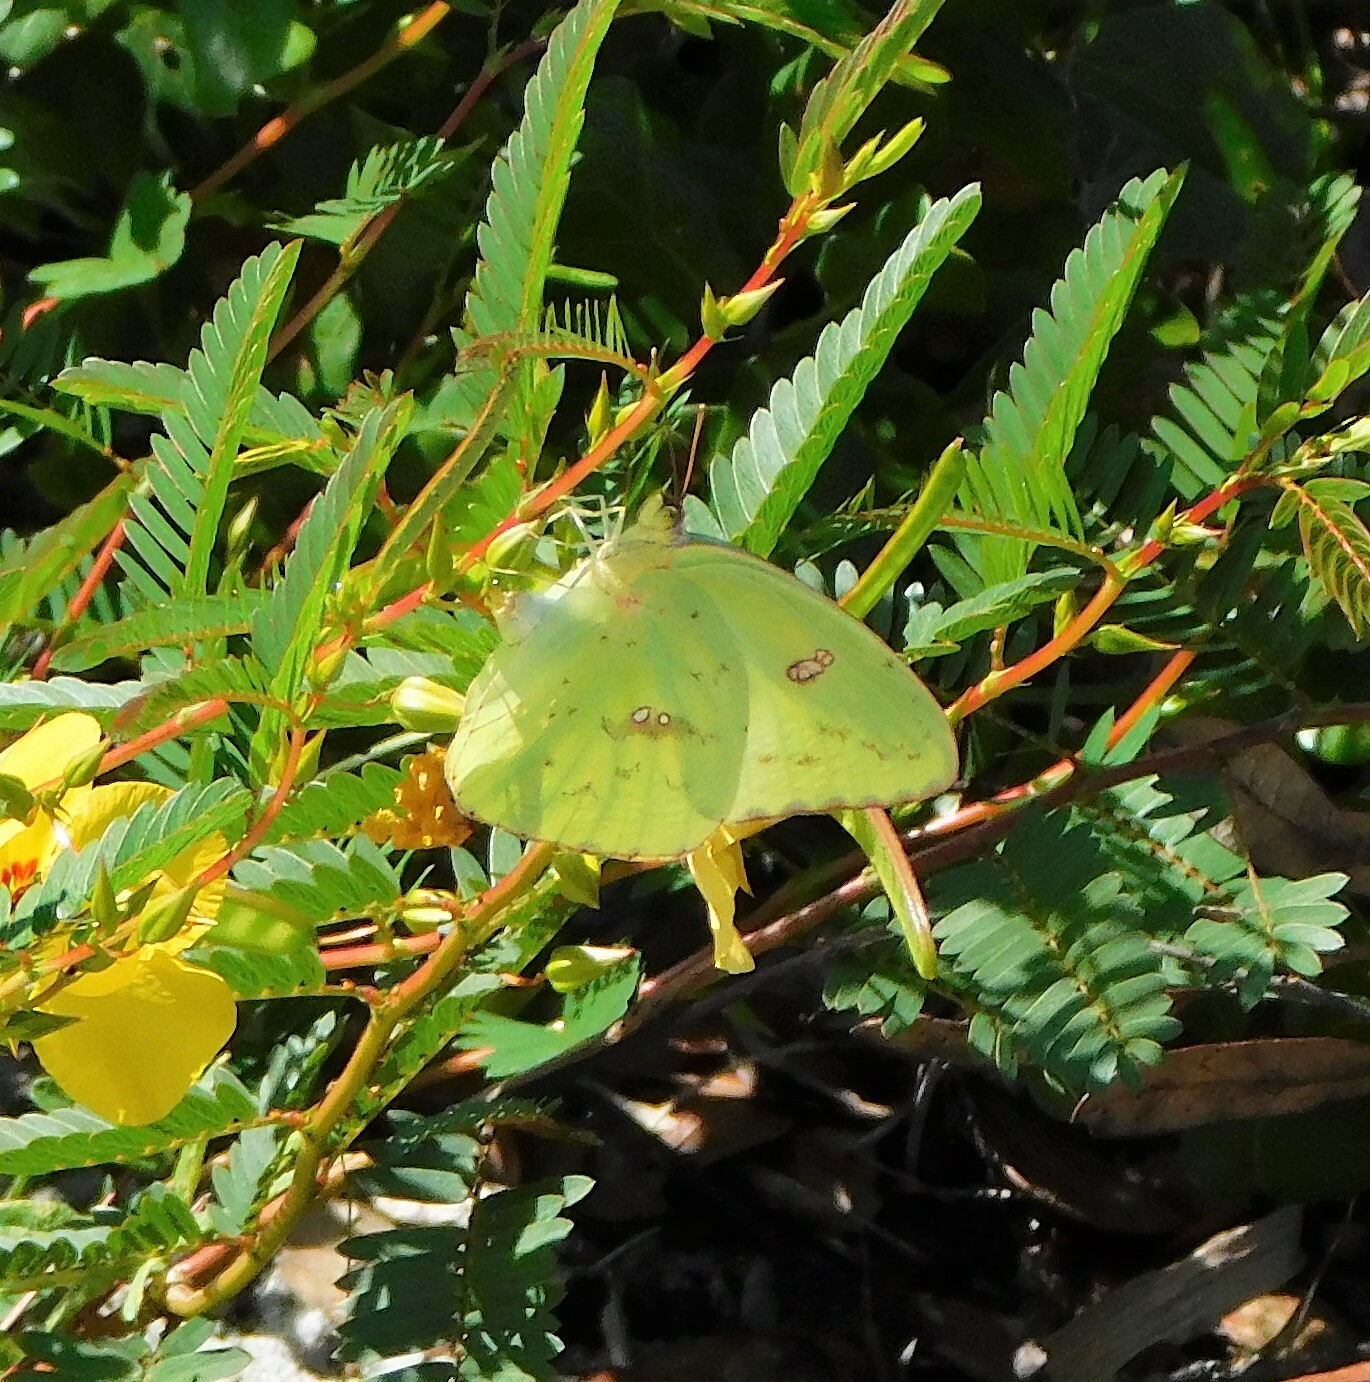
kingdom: Animalia
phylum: Arthropoda
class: Insecta
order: Lepidoptera
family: Pieridae
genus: Phoebis
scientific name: Phoebis sennae
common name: Cloudless sulphur
